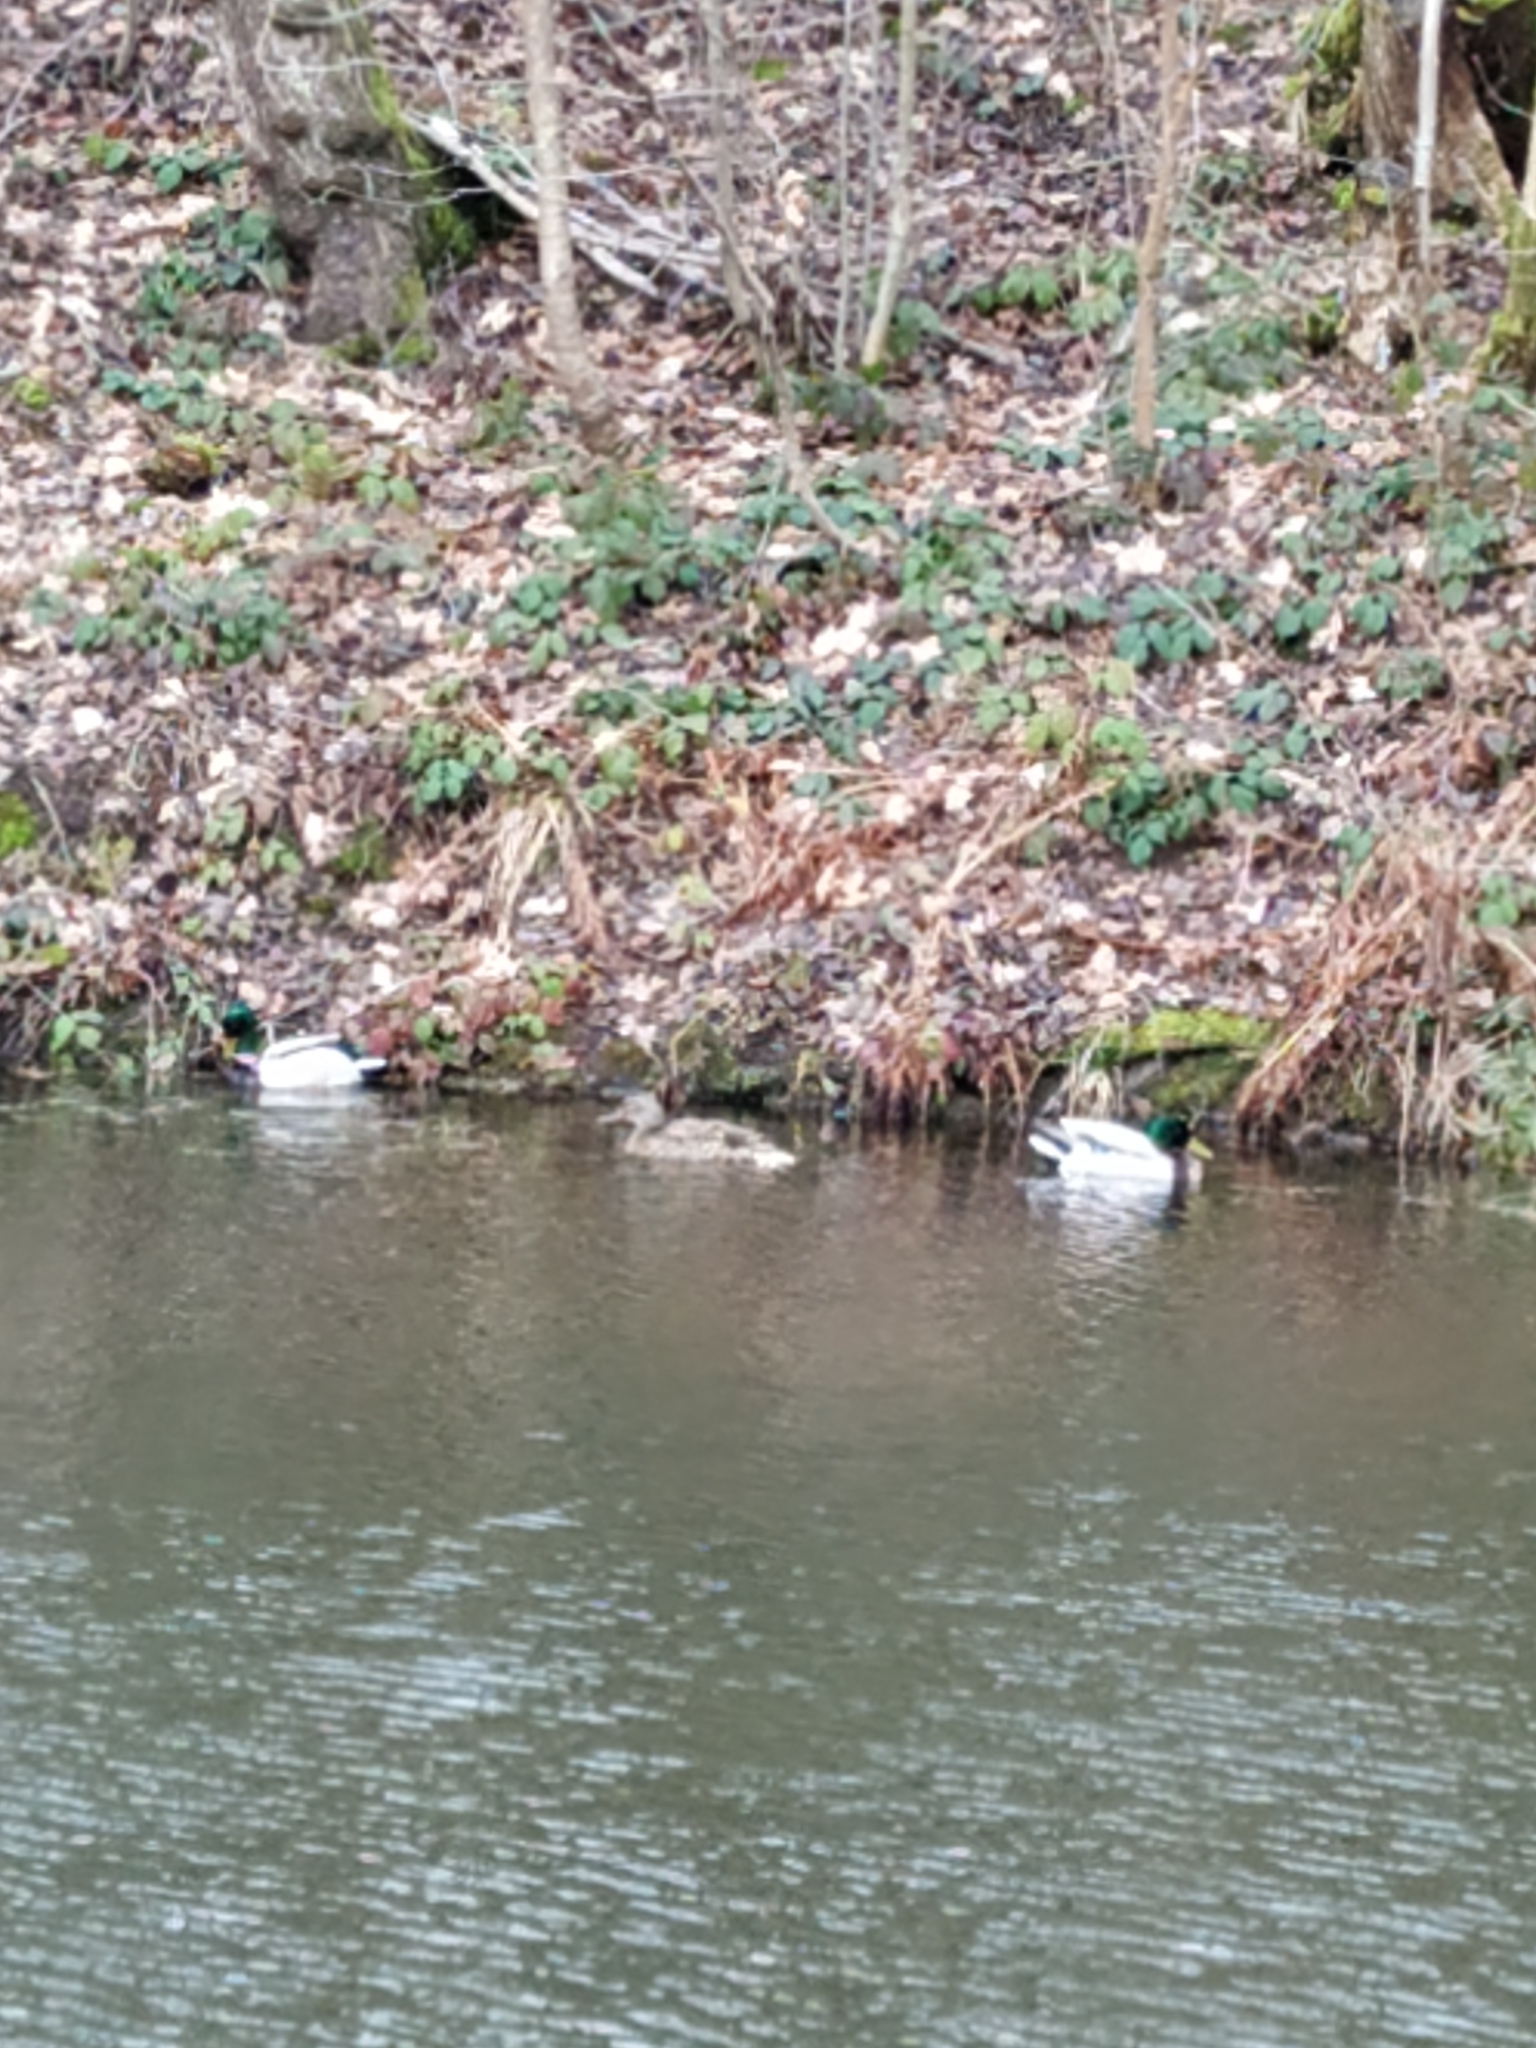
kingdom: Animalia
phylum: Chordata
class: Aves
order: Anseriformes
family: Anatidae
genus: Anas
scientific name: Anas platyrhynchos
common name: Mallard
